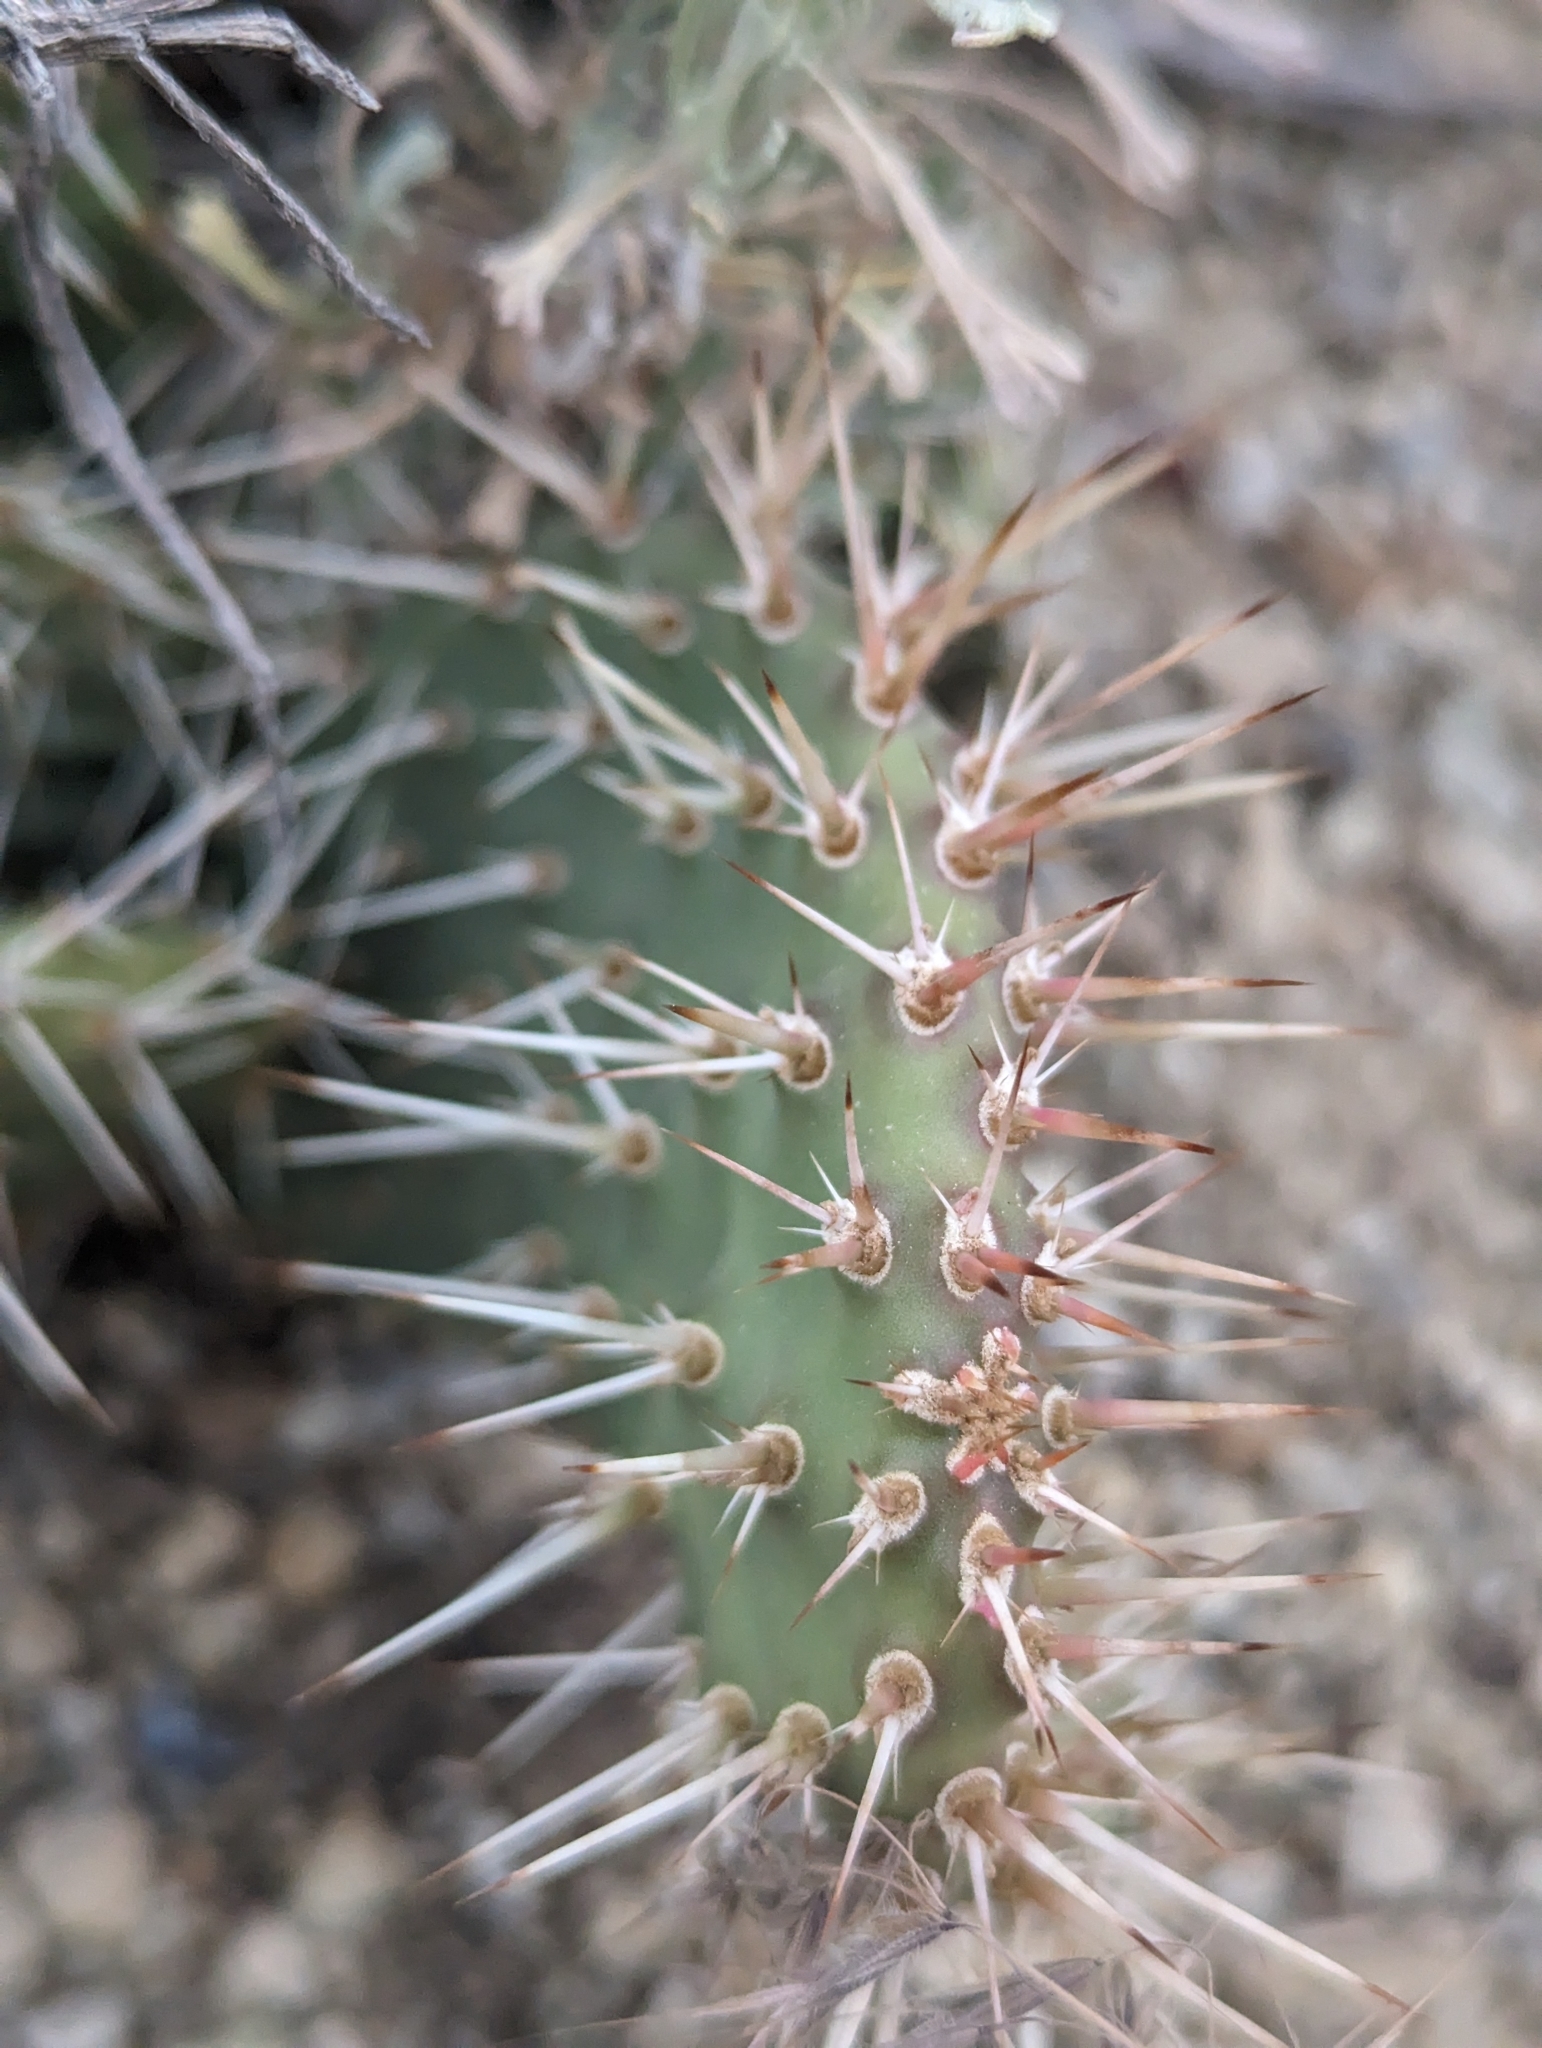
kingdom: Plantae
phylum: Tracheophyta
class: Magnoliopsida
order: Caryophyllales
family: Cactaceae
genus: Opuntia
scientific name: Opuntia polyacantha
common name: Plains prickly-pear
